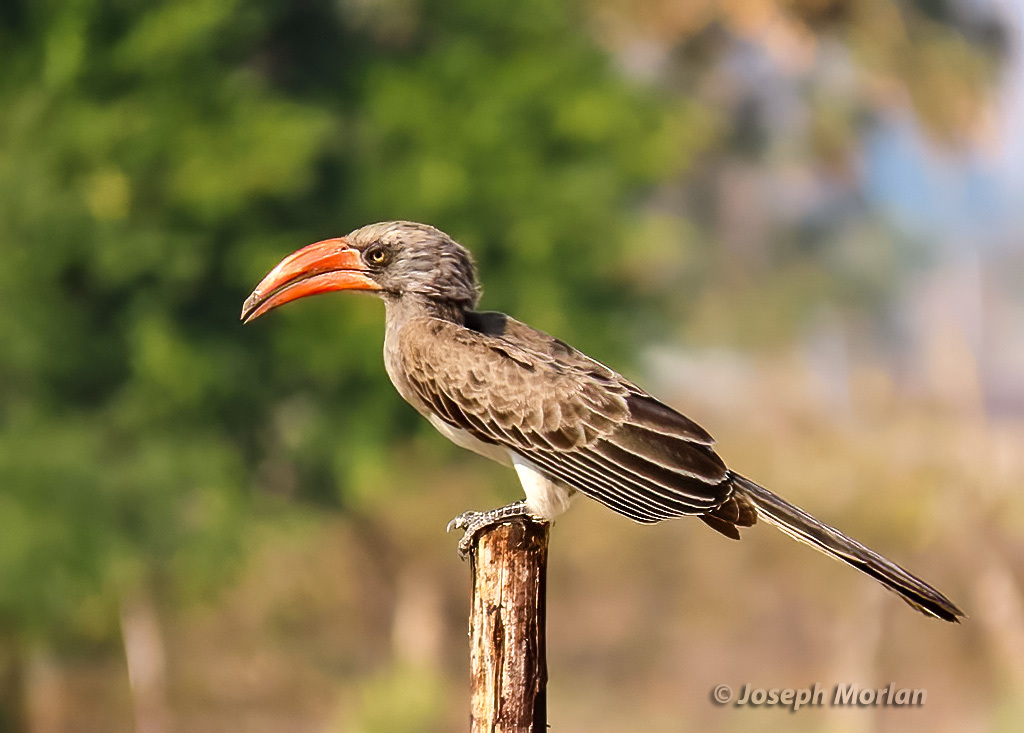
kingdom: Animalia
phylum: Chordata
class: Aves
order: Bucerotiformes
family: Bucerotidae
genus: Lophoceros
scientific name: Lophoceros bradfieldi
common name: Bradfield's hornbill
